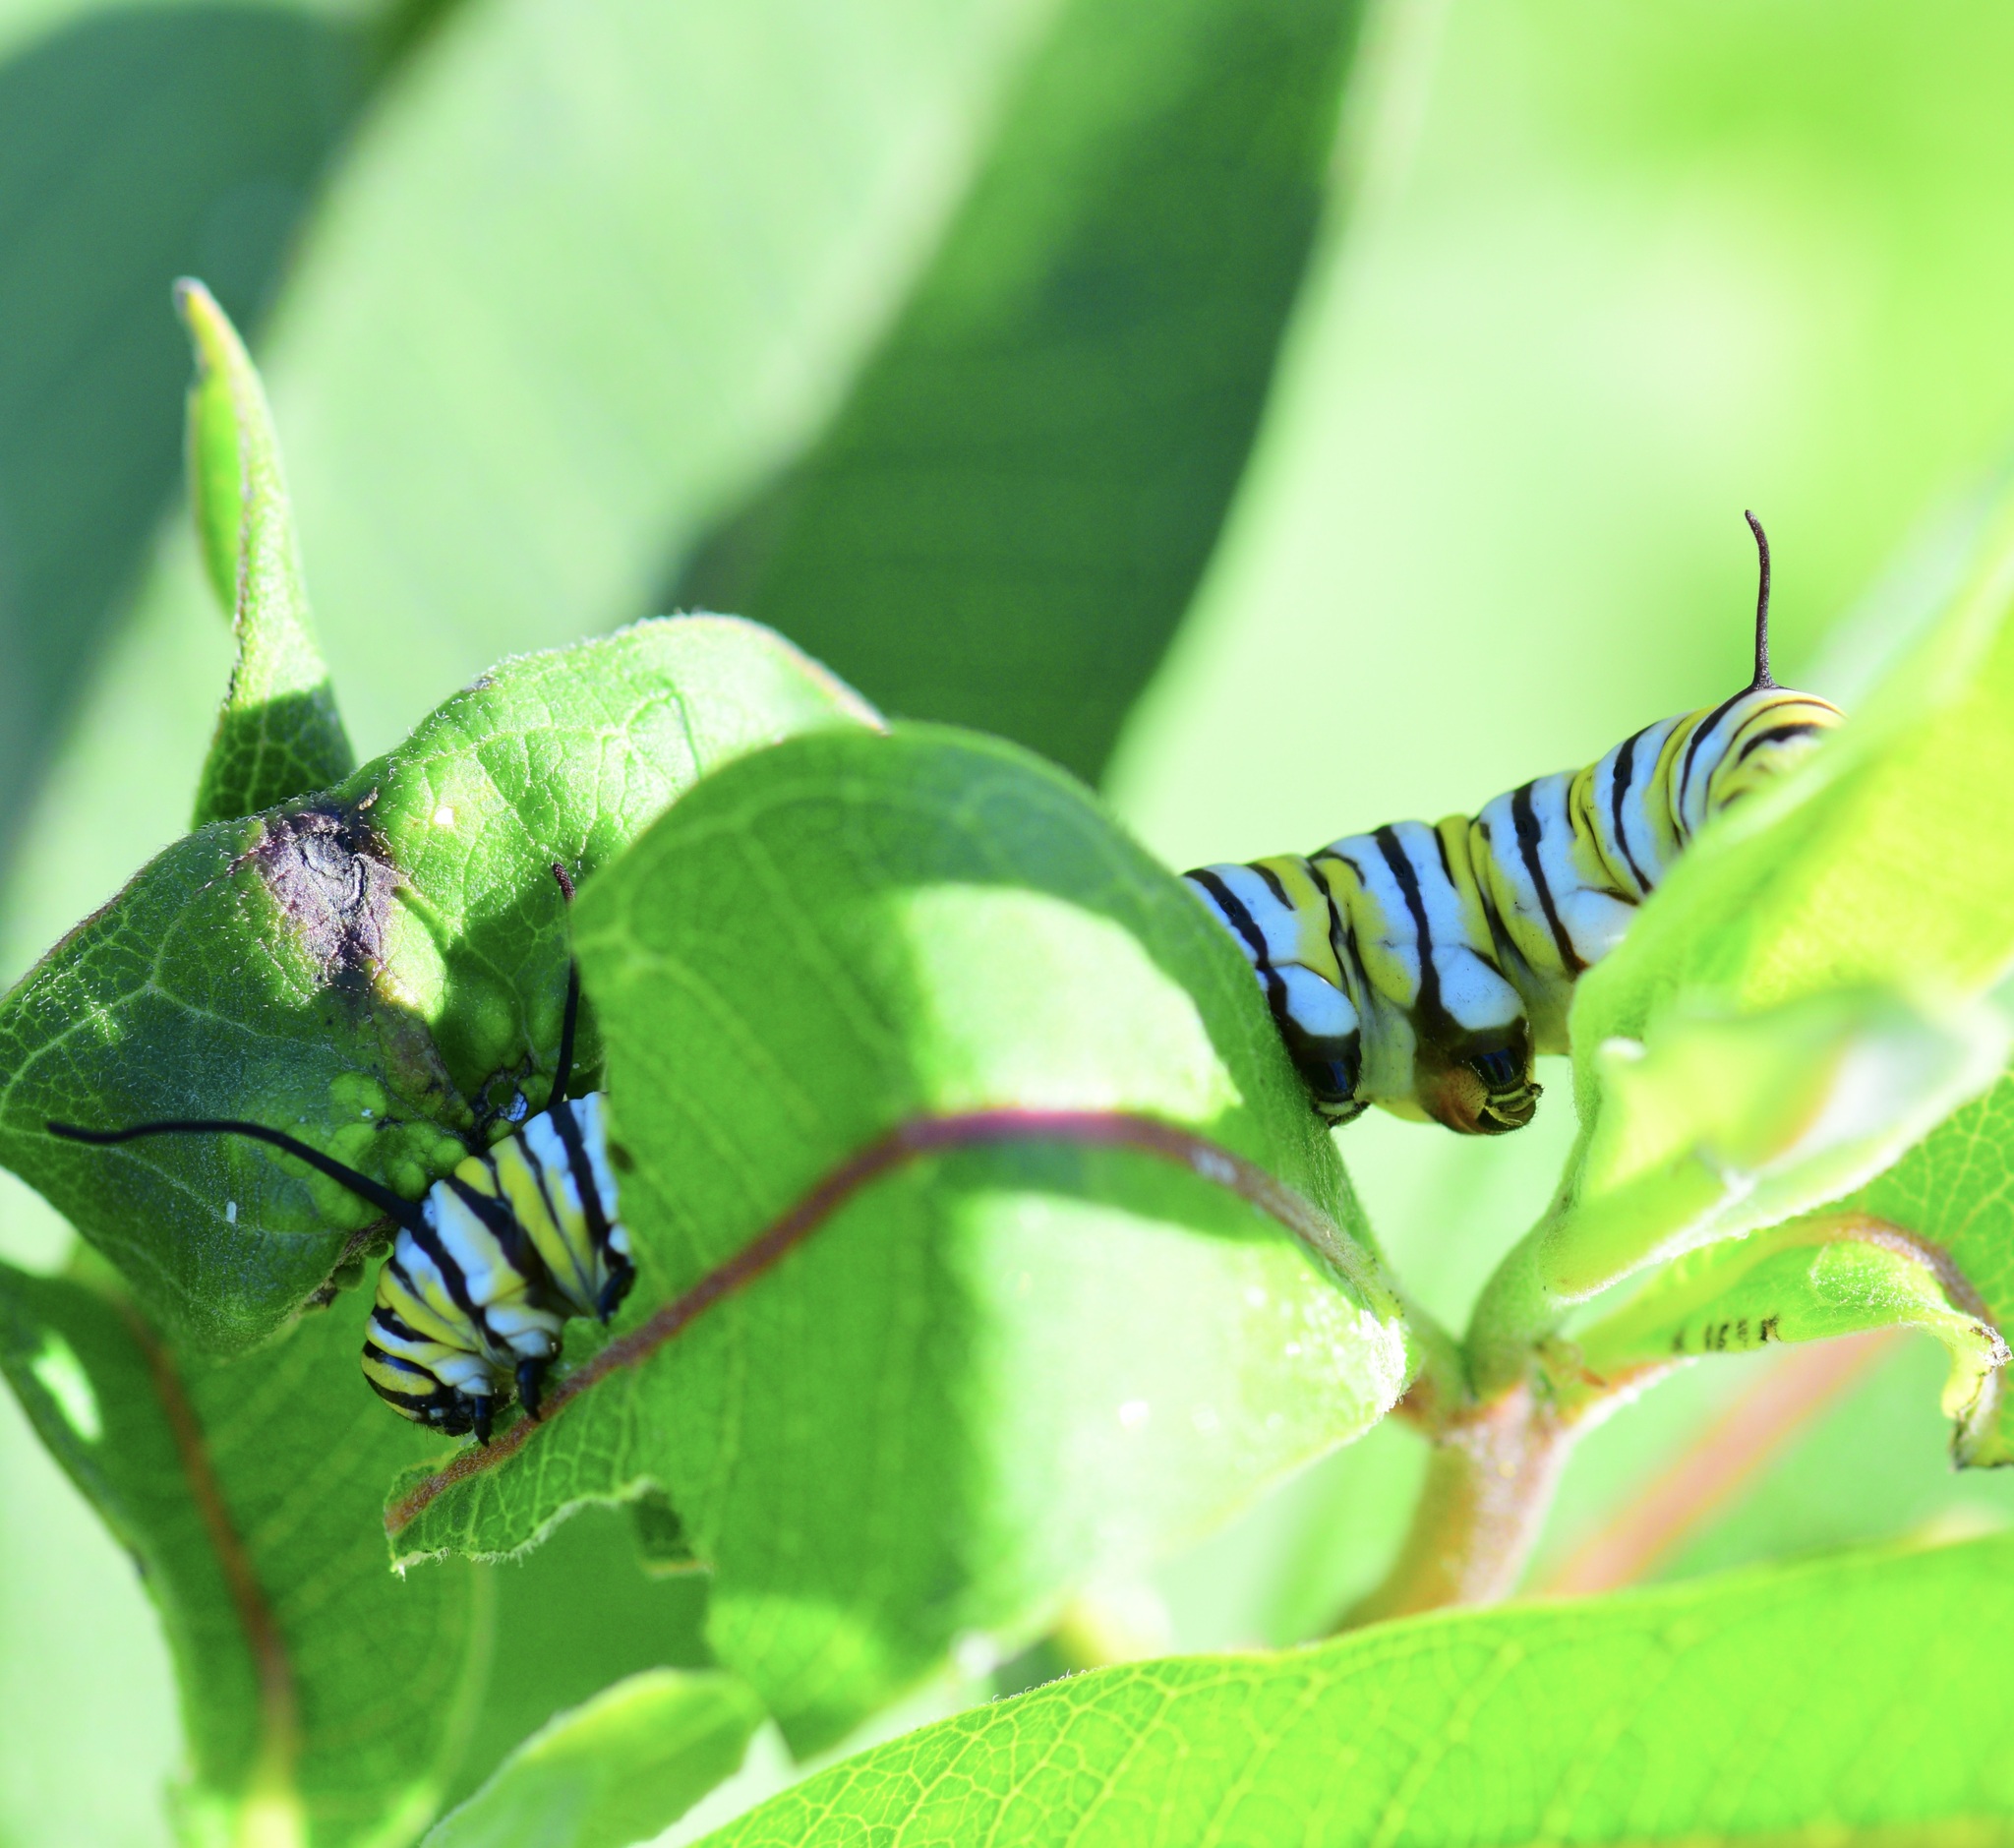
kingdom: Animalia
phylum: Arthropoda
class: Insecta
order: Lepidoptera
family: Nymphalidae
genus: Danaus
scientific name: Danaus plexippus
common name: Monarch
